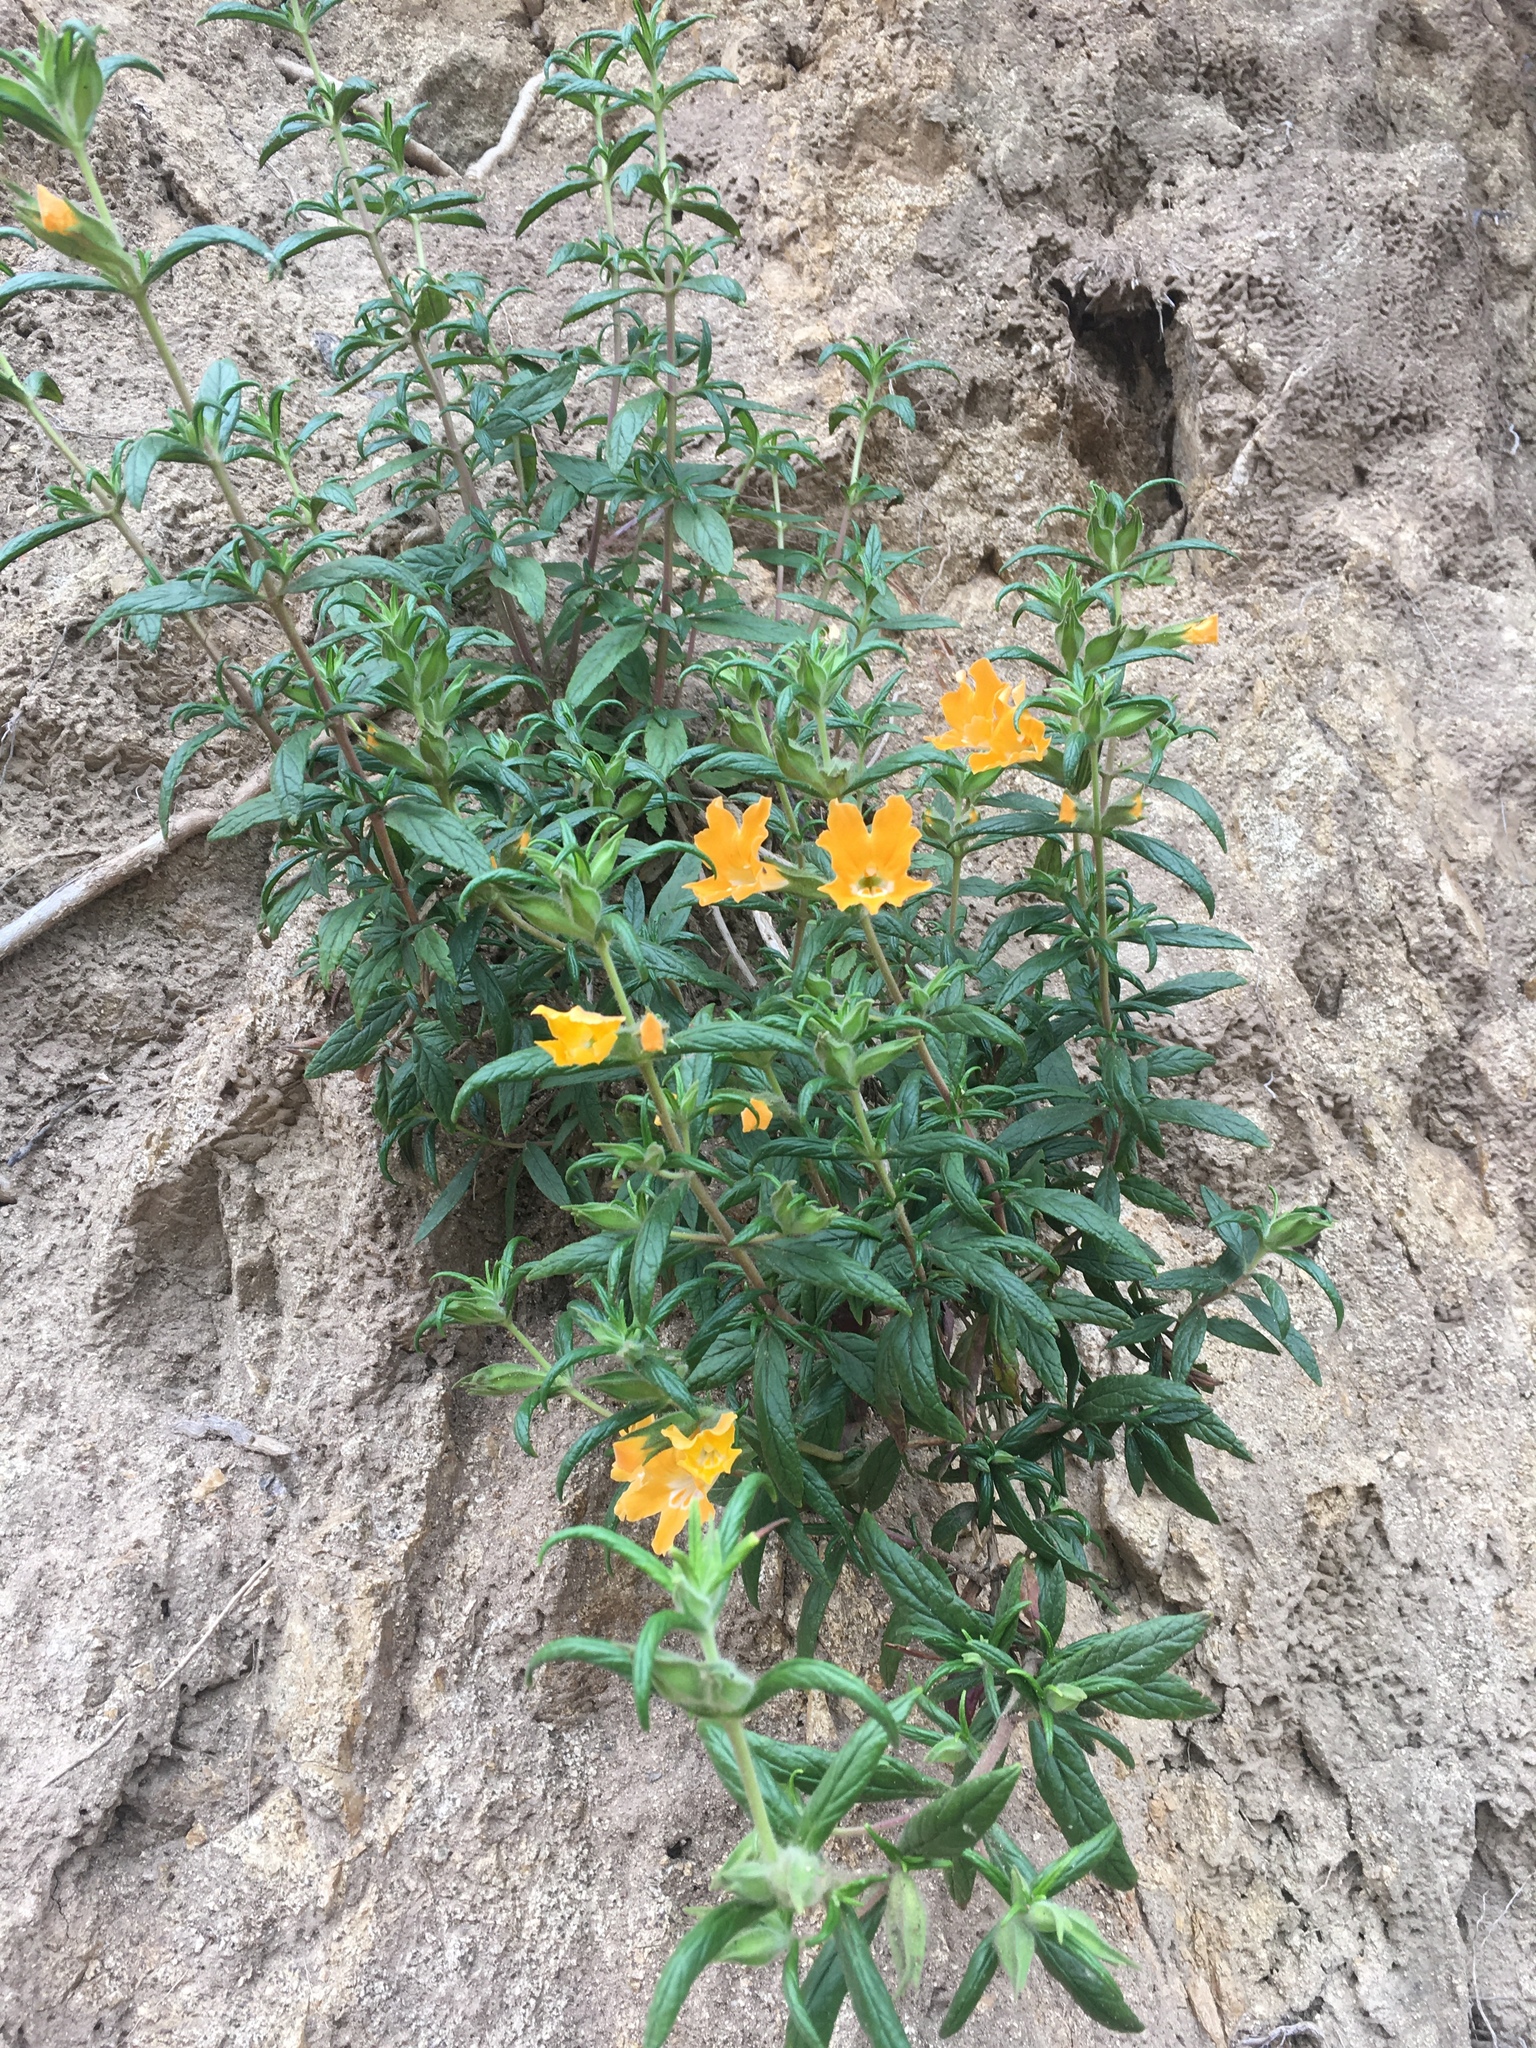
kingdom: Plantae
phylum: Tracheophyta
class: Magnoliopsida
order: Lamiales
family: Phrymaceae
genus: Diplacus
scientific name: Diplacus longiflorus
